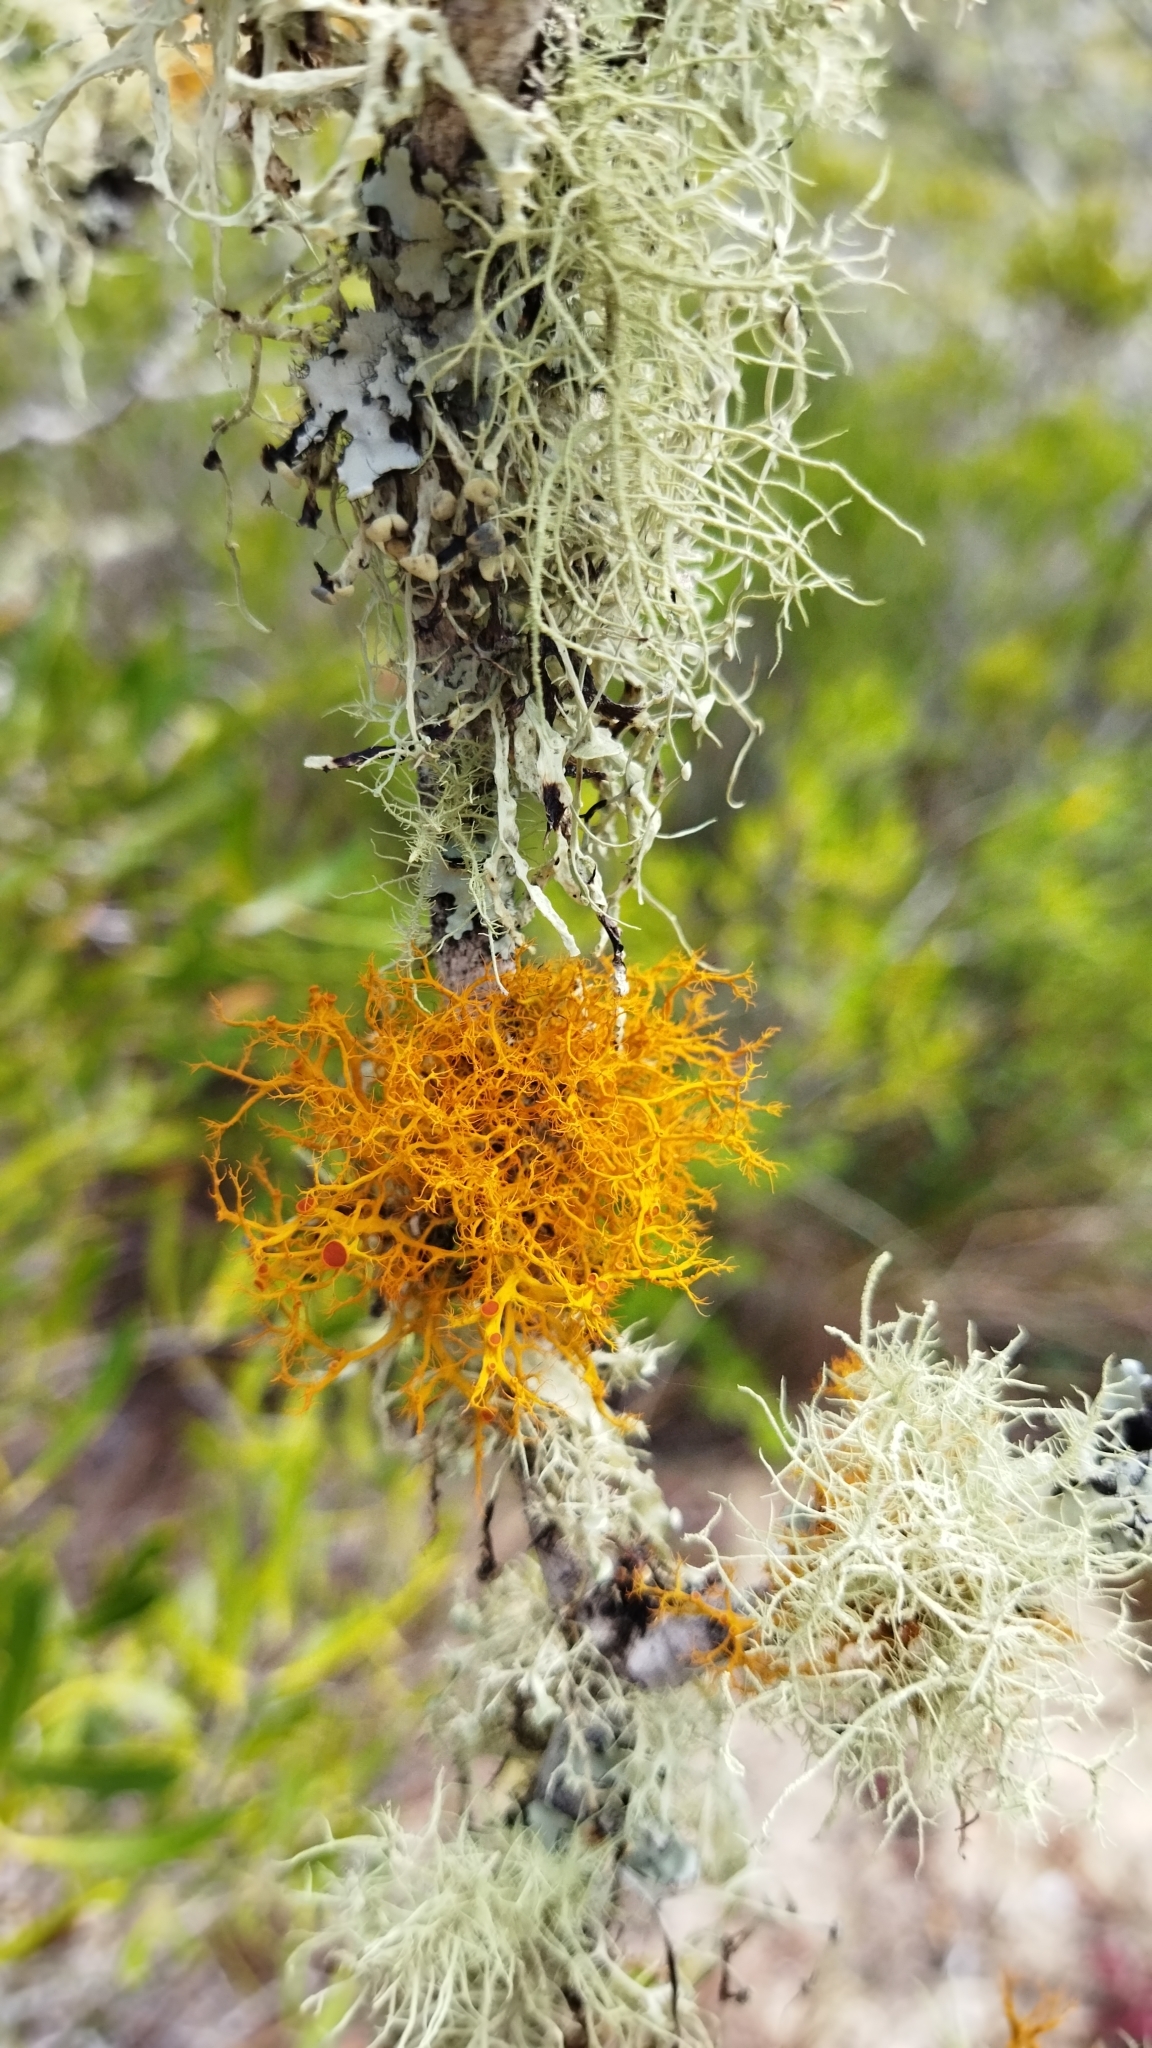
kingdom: Fungi
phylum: Ascomycota
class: Lecanoromycetes
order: Teloschistales
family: Teloschistaceae
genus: Teloschistes
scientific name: Teloschistes capensis
